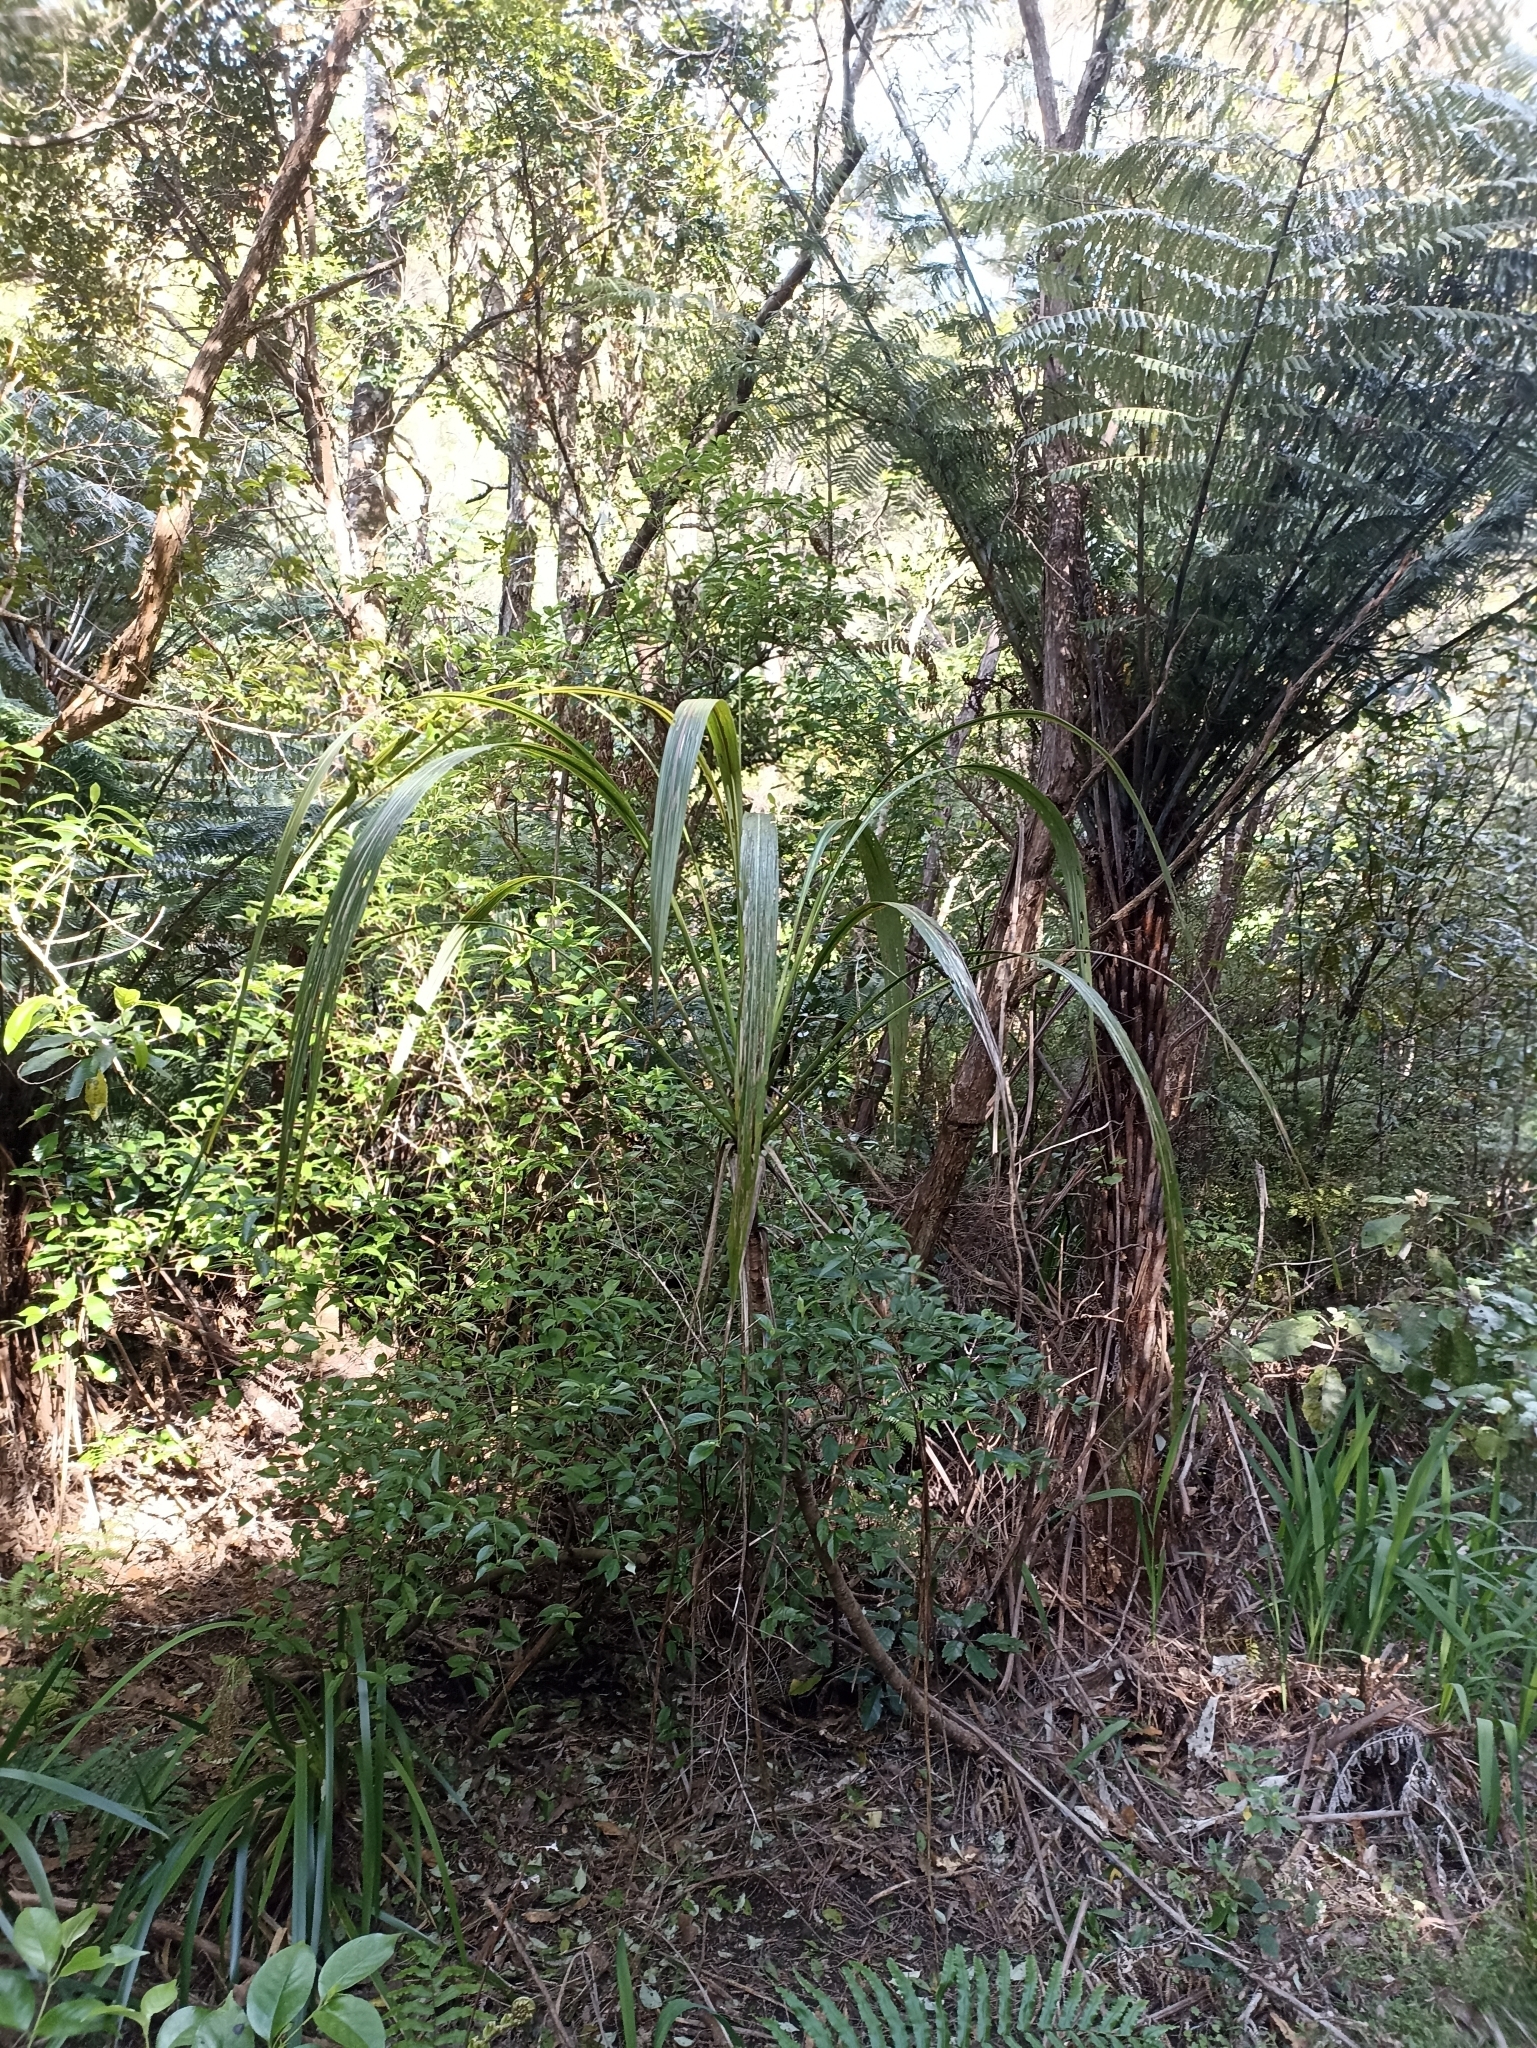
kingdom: Plantae
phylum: Tracheophyta
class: Liliopsida
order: Asparagales
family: Asparagaceae
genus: Cordyline
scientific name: Cordyline banksii
